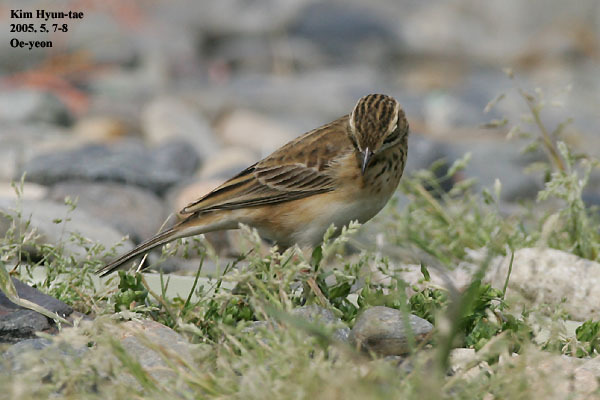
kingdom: Animalia
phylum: Chordata
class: Aves
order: Passeriformes
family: Motacillidae
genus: Anthus
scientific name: Anthus richardi
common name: Richard's pipit
